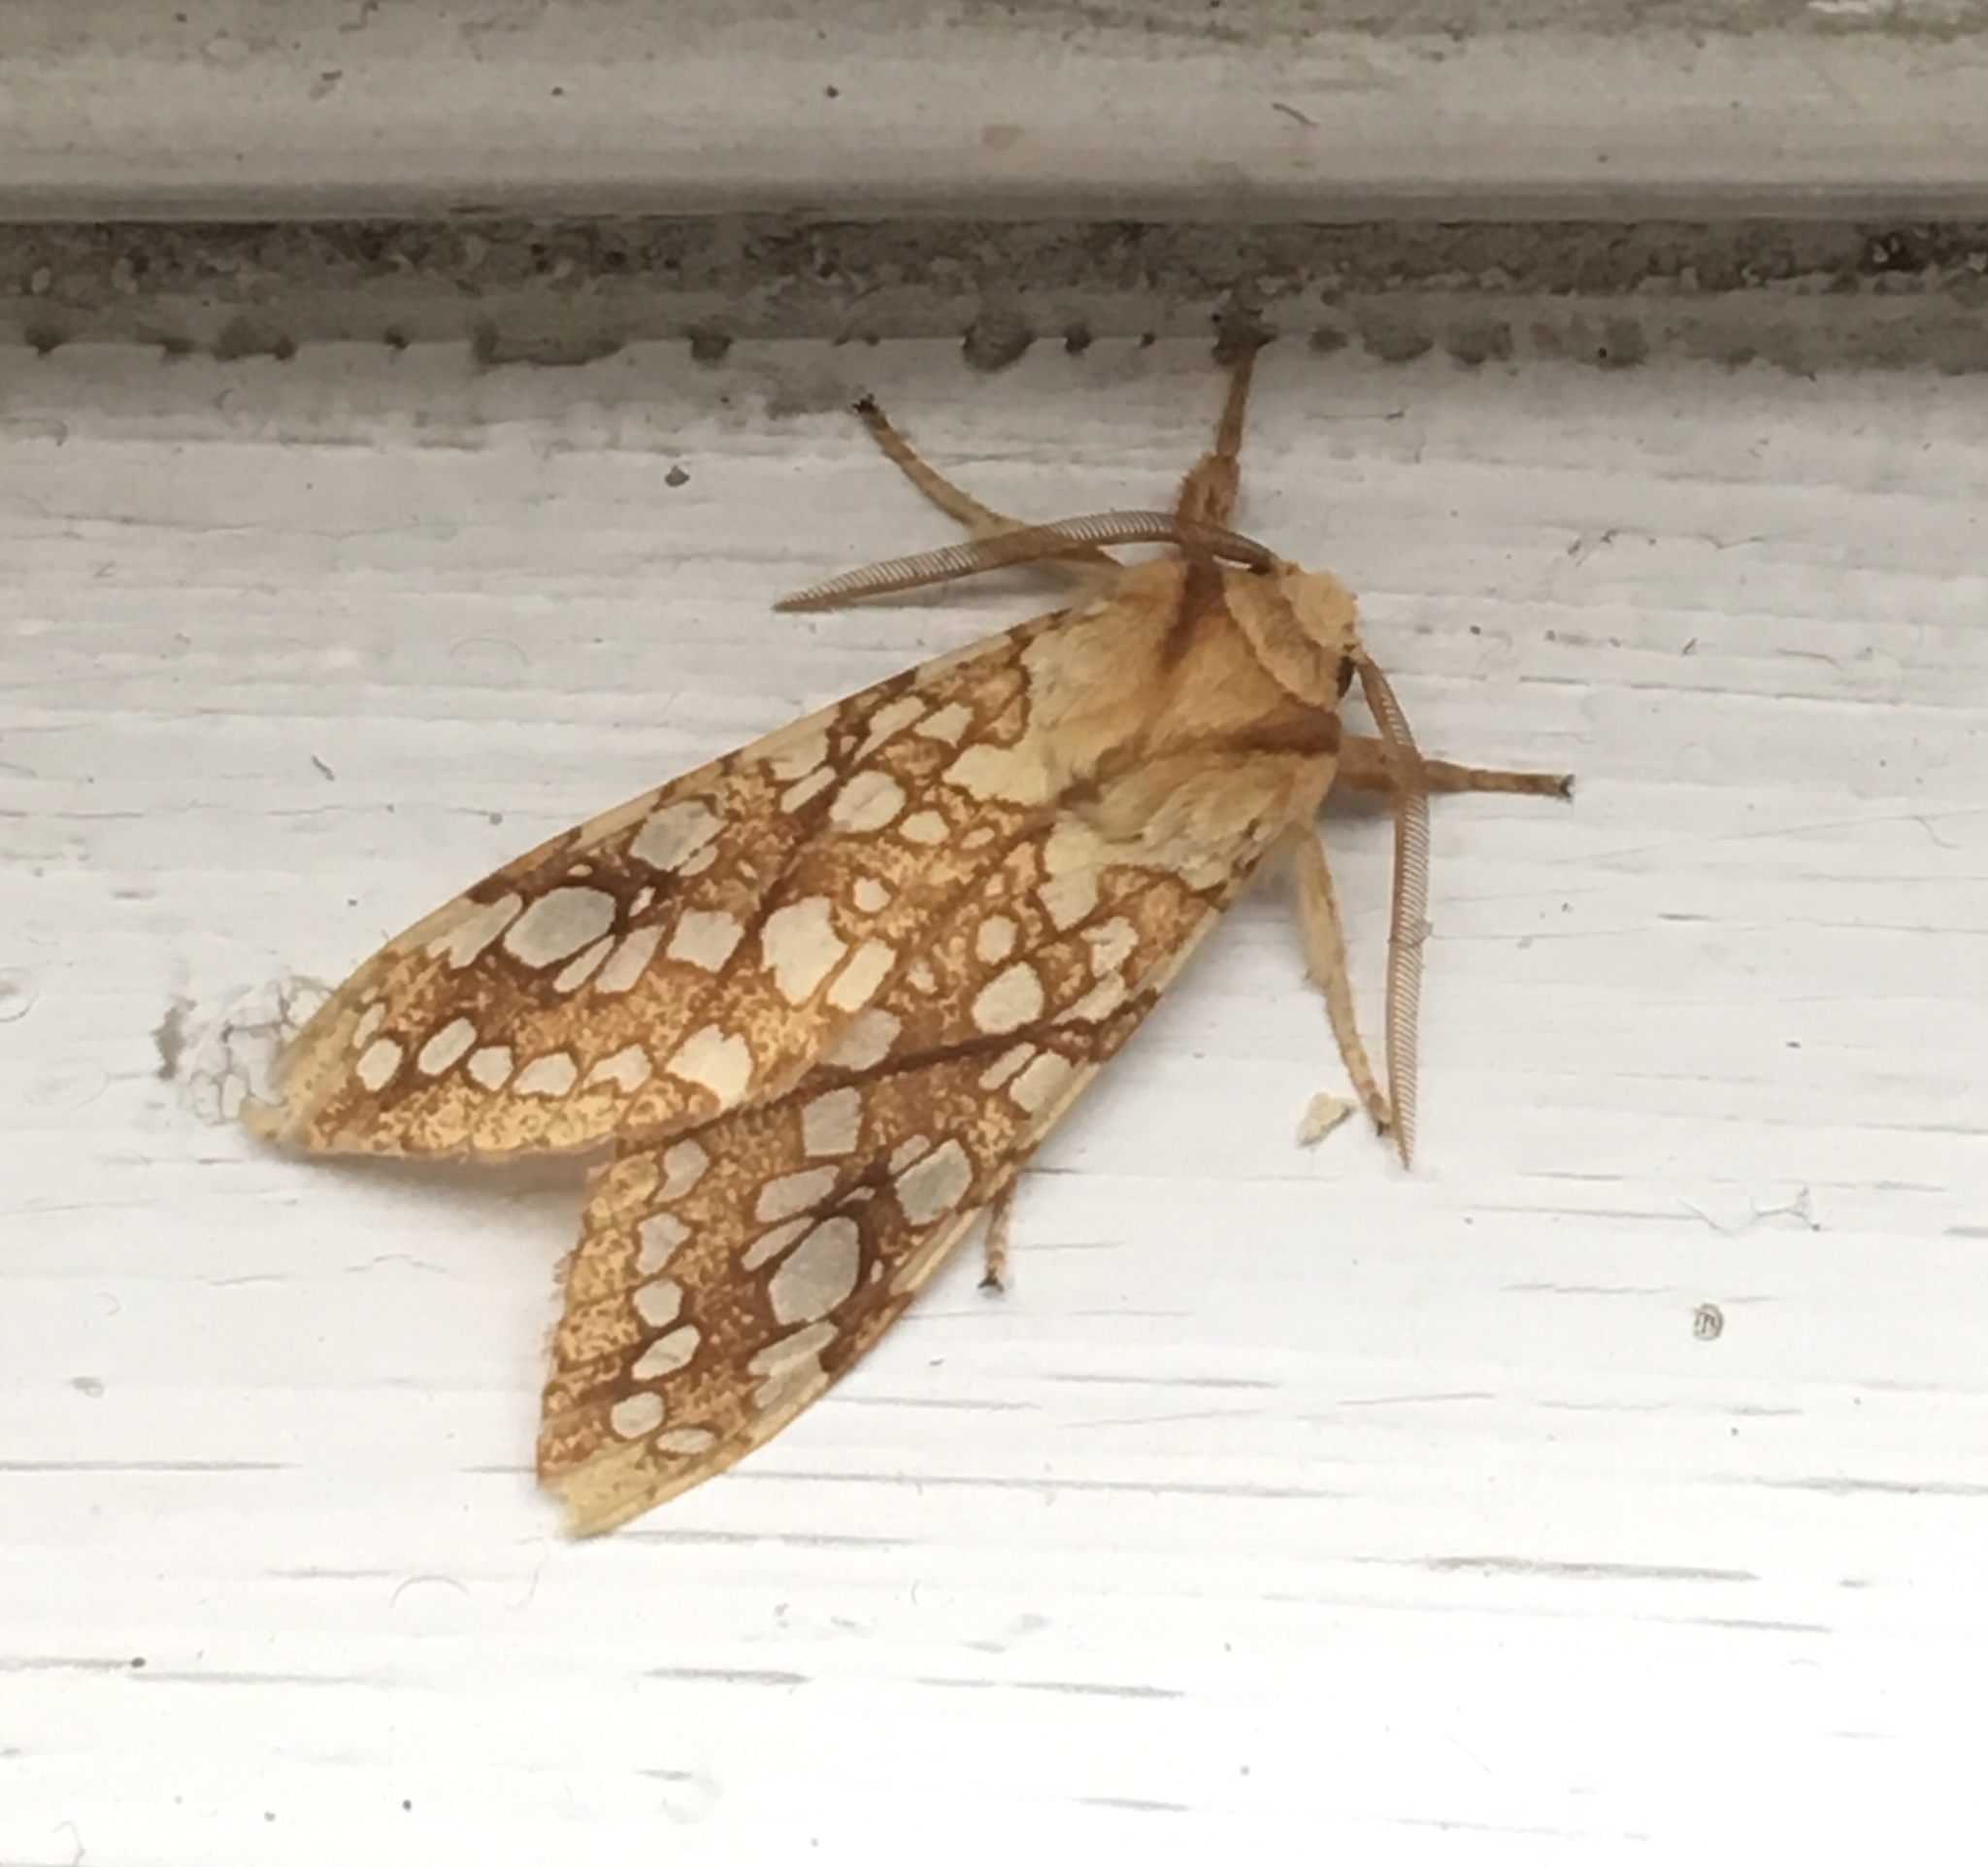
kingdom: Animalia
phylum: Arthropoda
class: Insecta
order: Lepidoptera
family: Erebidae
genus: Lophocampa
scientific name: Lophocampa caryae
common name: Hickory tussock moth
